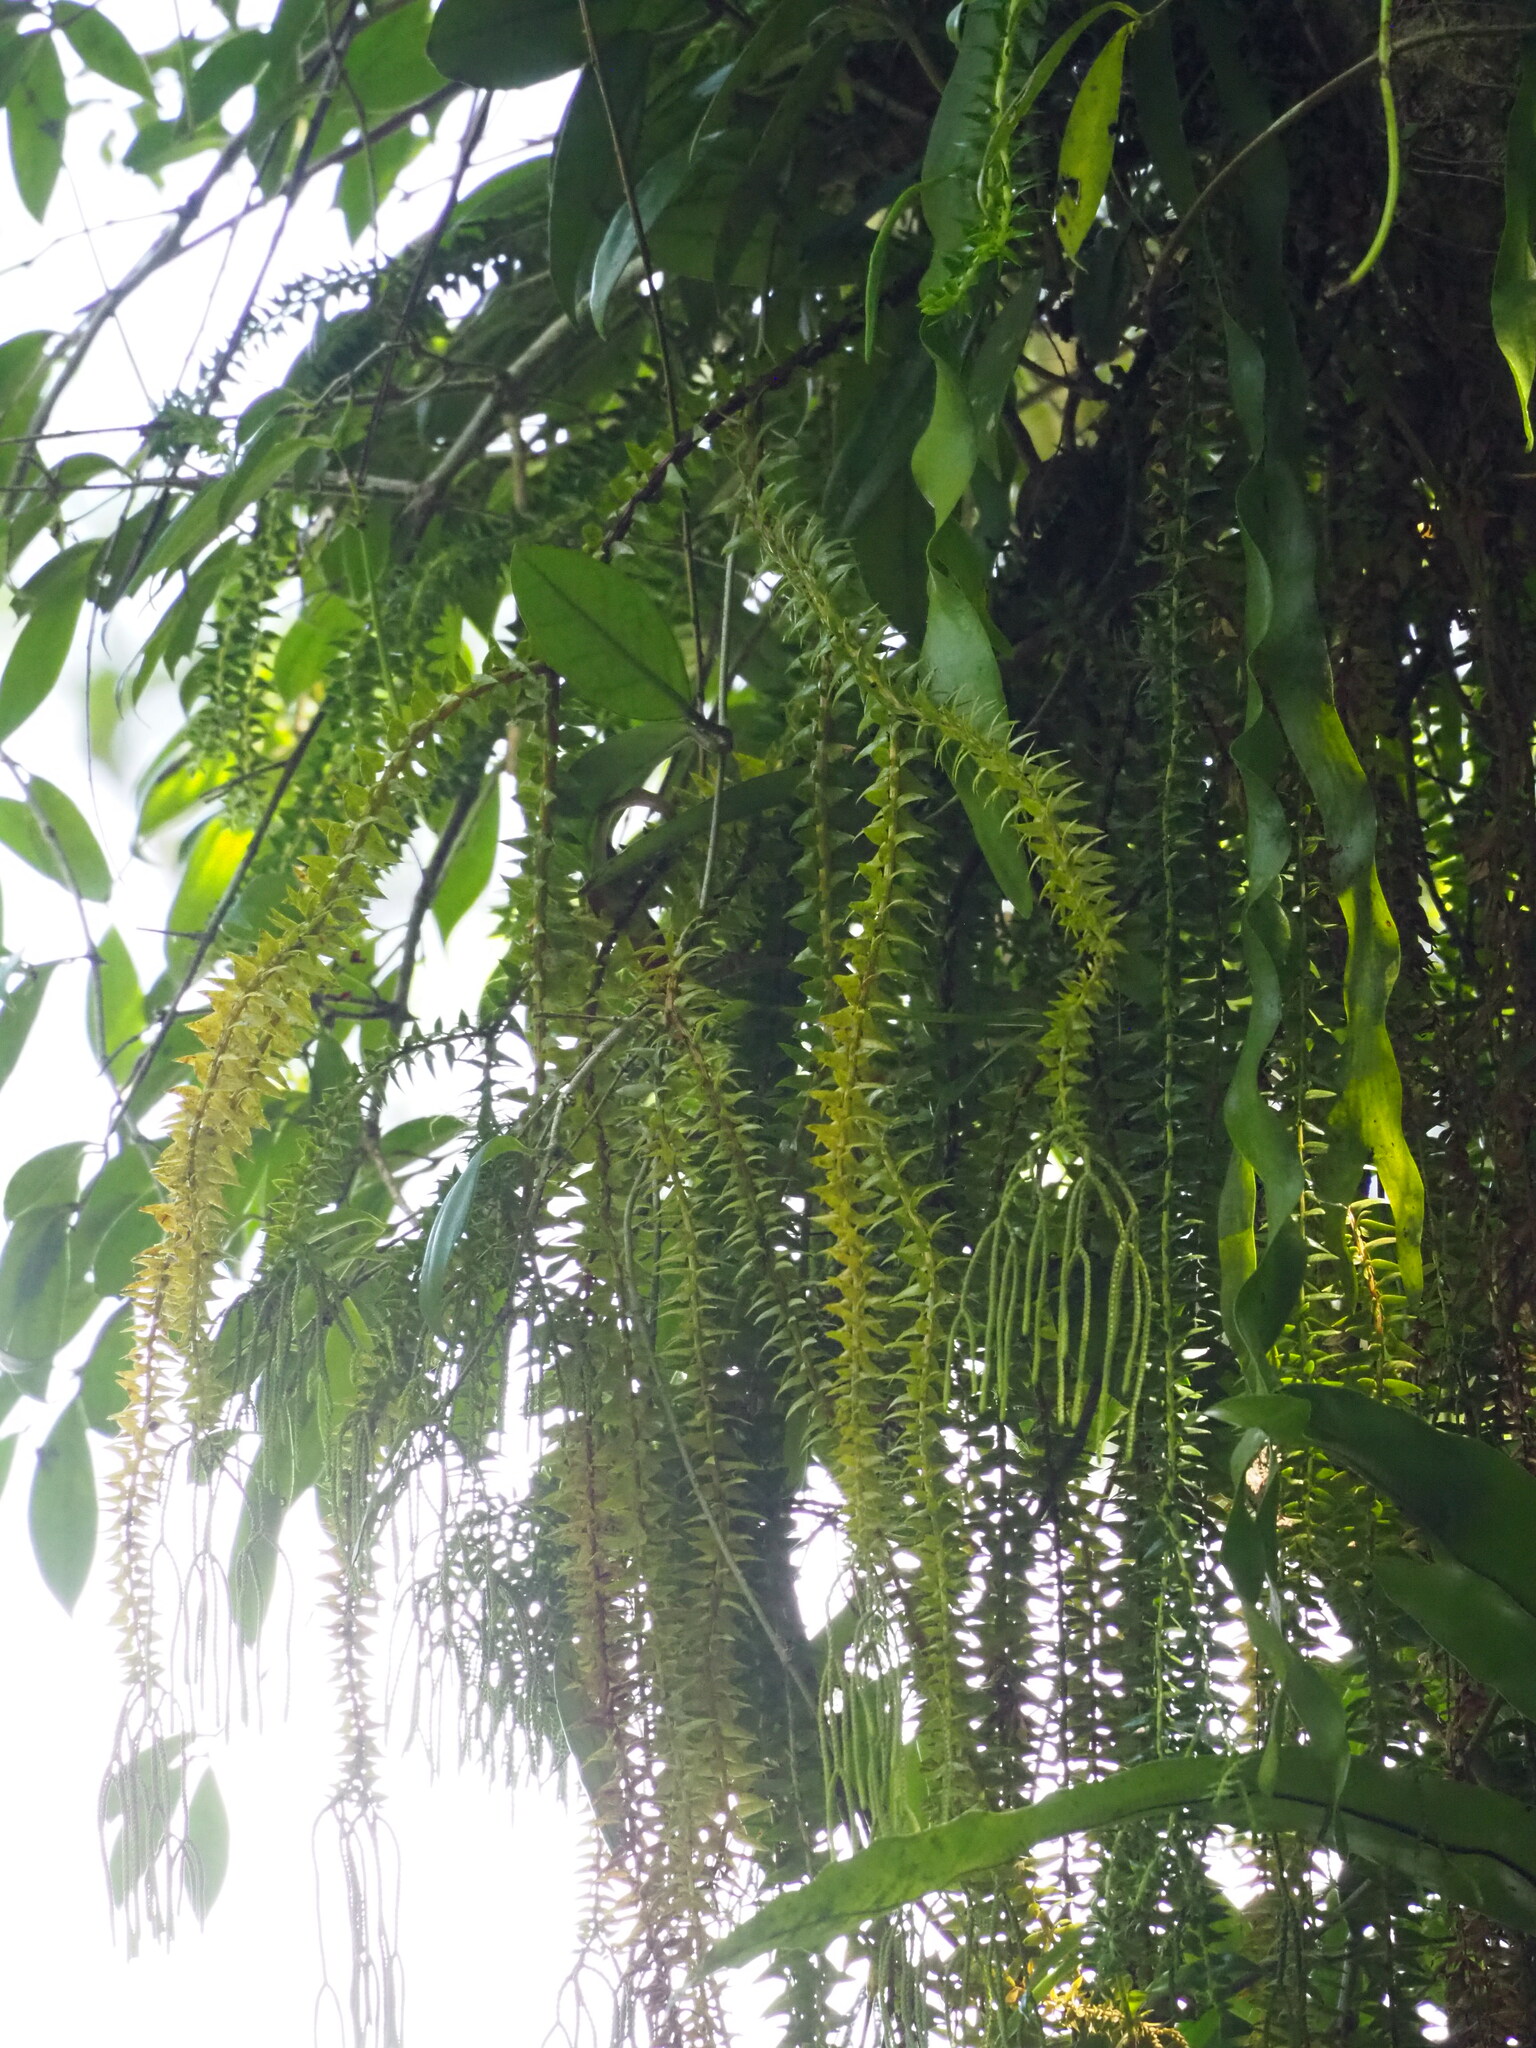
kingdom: Plantae
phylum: Tracheophyta
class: Lycopodiopsida
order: Lycopodiales
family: Lycopodiaceae
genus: Phlegmariurus
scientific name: Phlegmariurus phlegmaria
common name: Coarse tassel-fern
